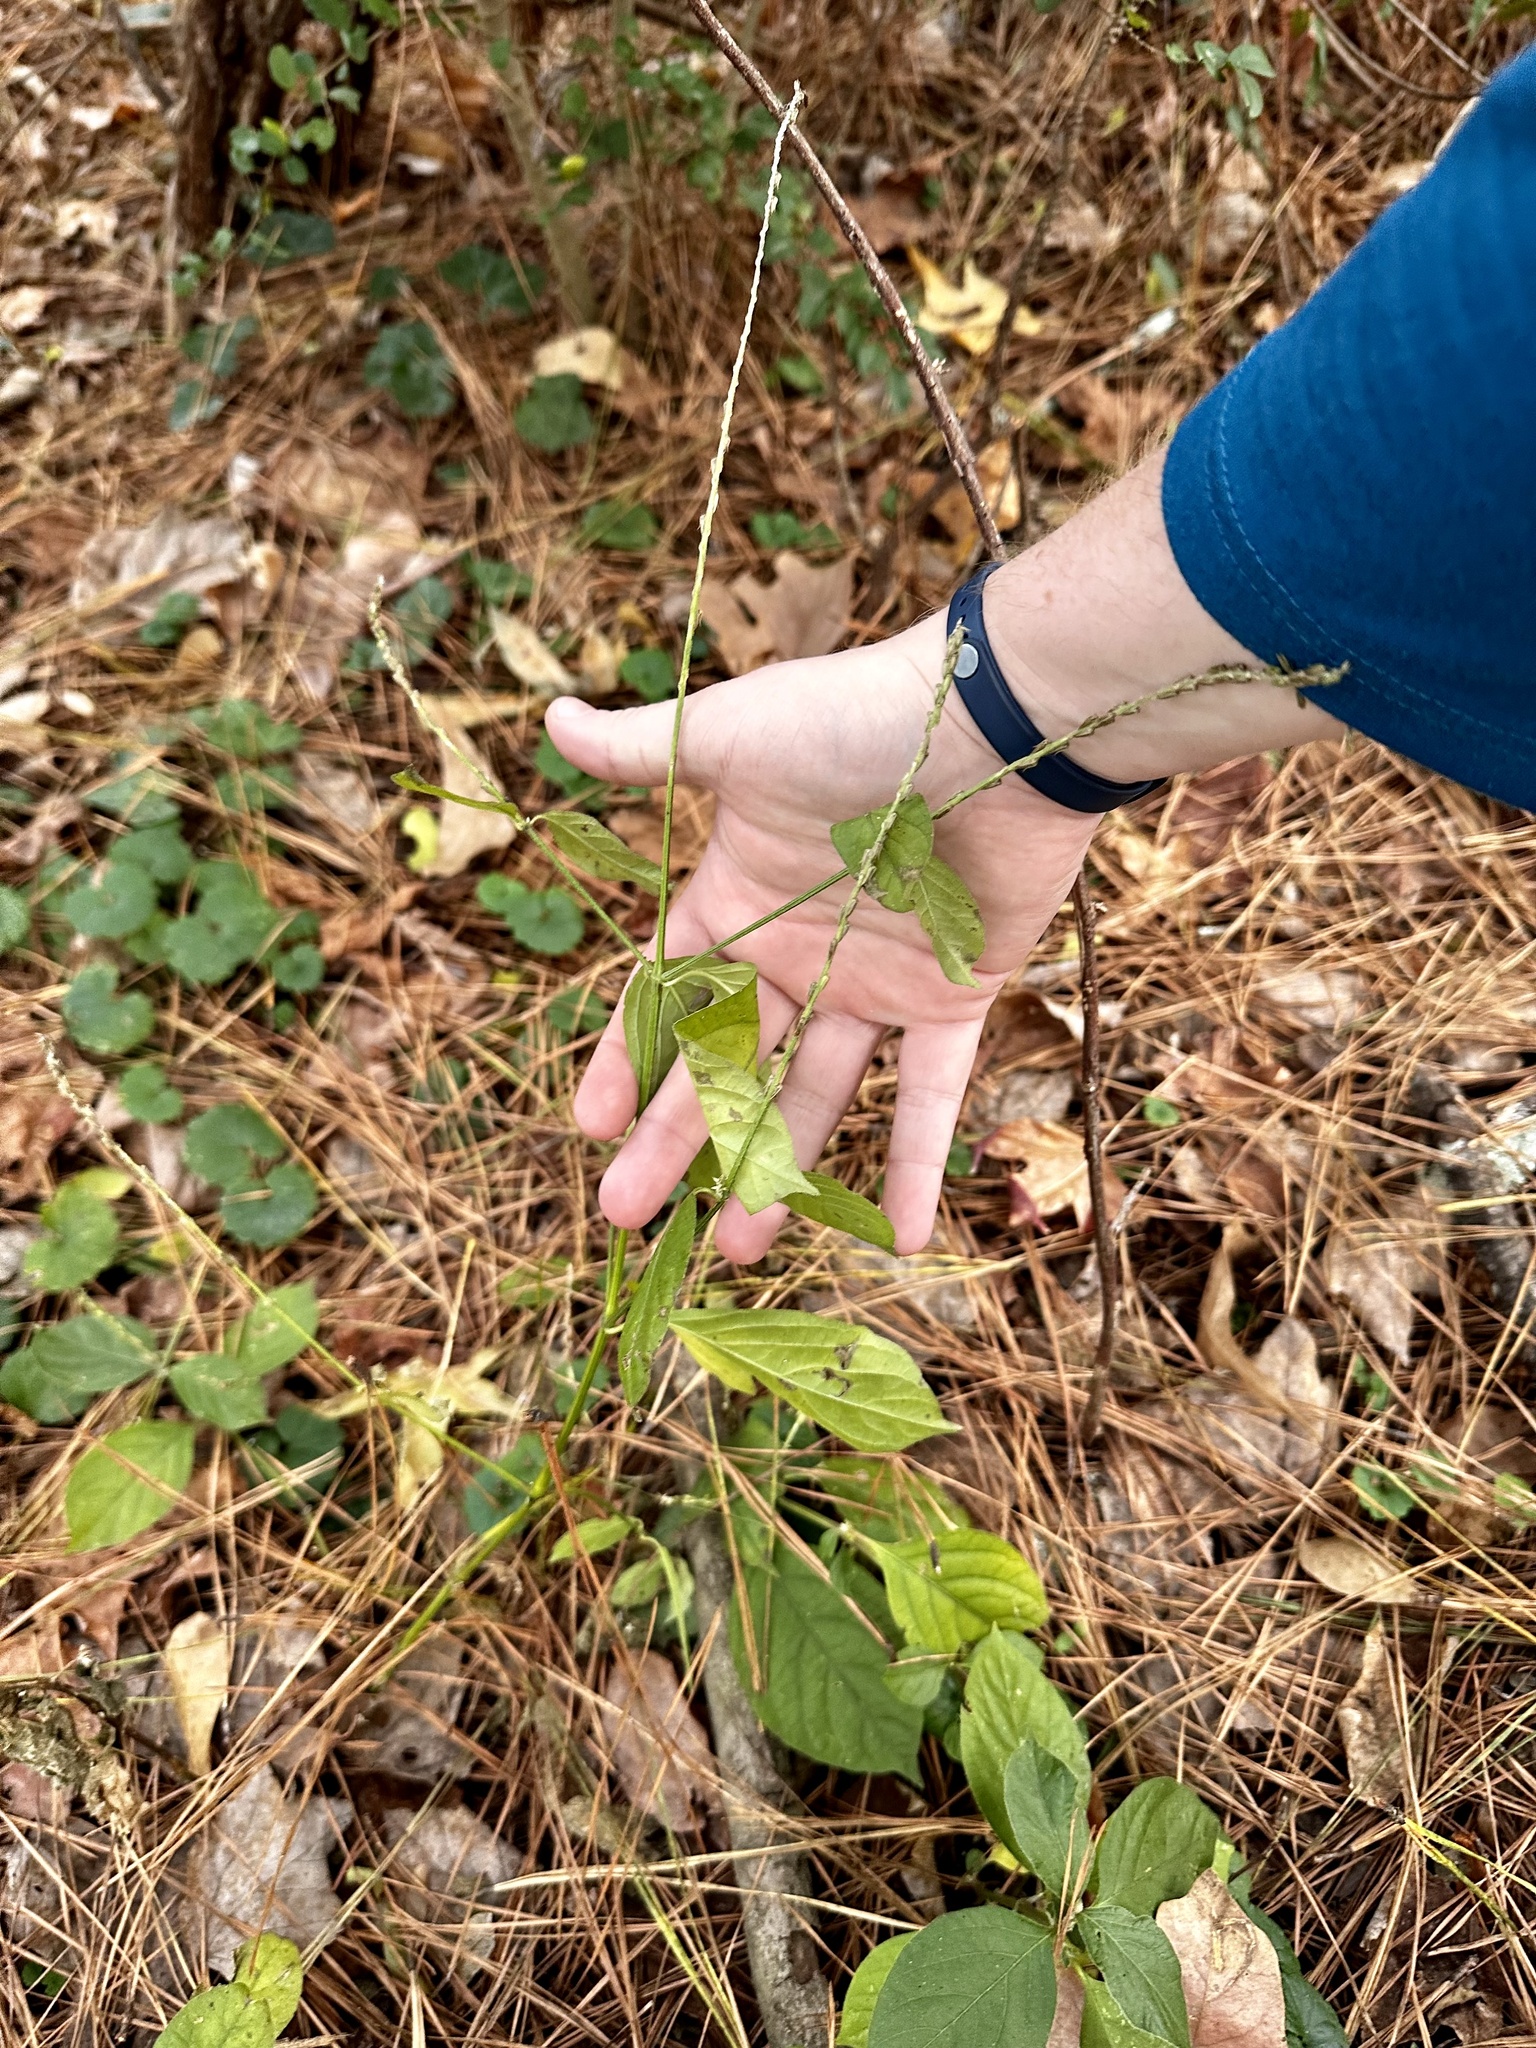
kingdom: Plantae
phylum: Tracheophyta
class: Magnoliopsida
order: Caryophyllales
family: Amaranthaceae
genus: Achyranthes
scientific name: Achyranthes bidentata
